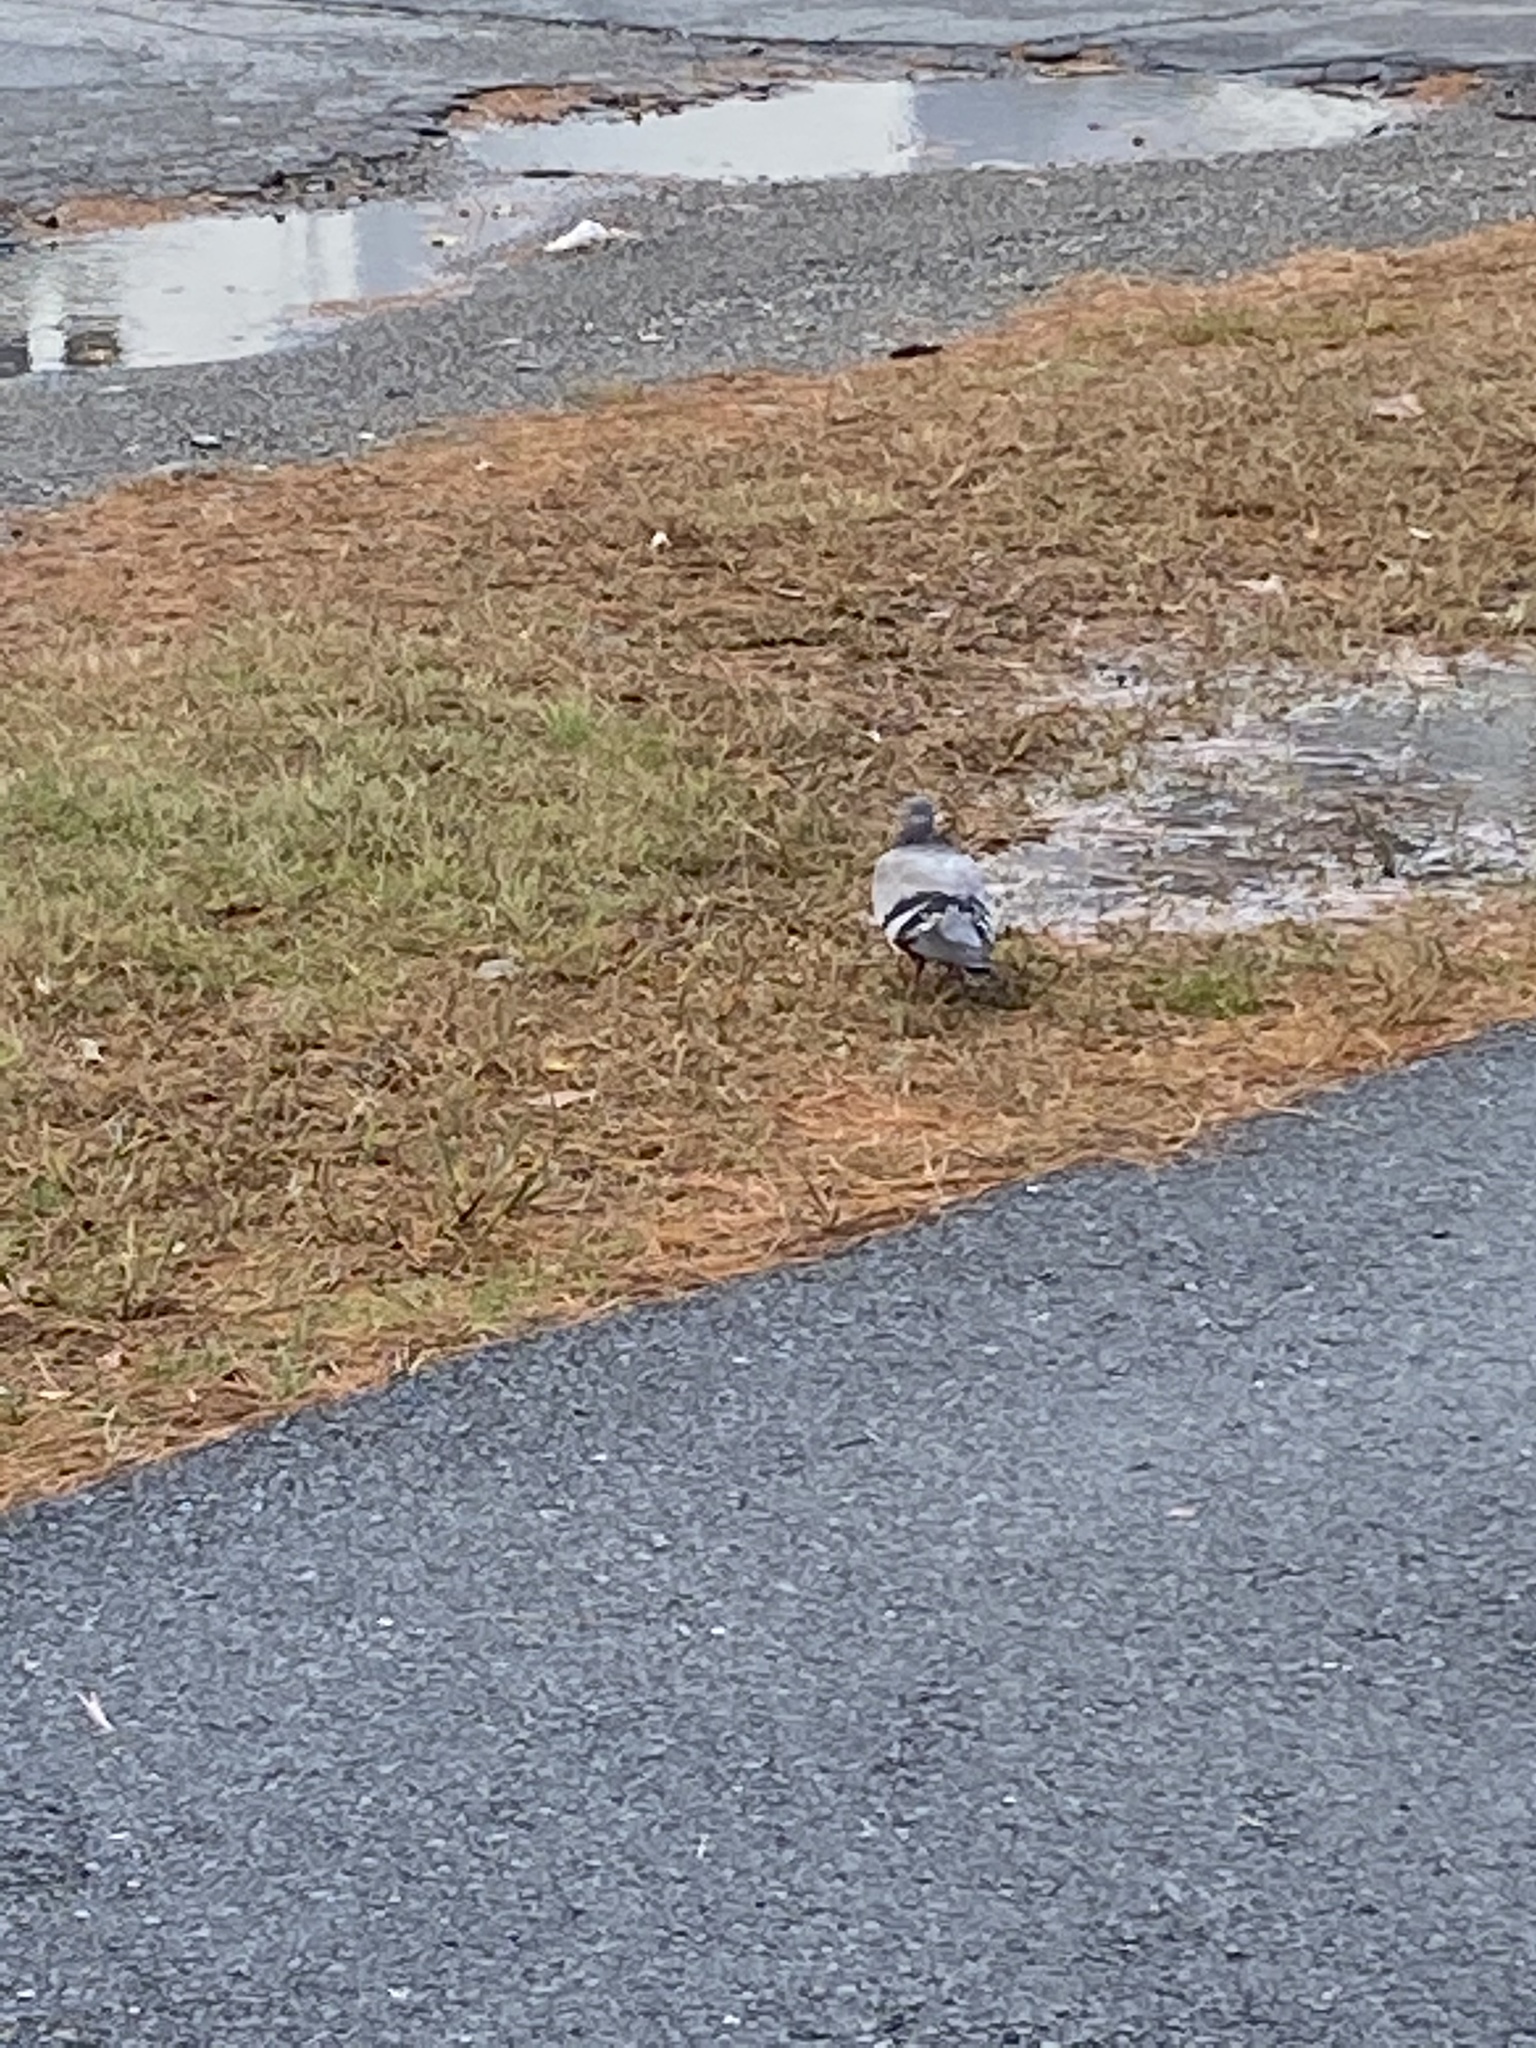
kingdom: Animalia
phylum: Chordata
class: Aves
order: Columbiformes
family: Columbidae
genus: Columba
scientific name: Columba livia
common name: Rock pigeon
